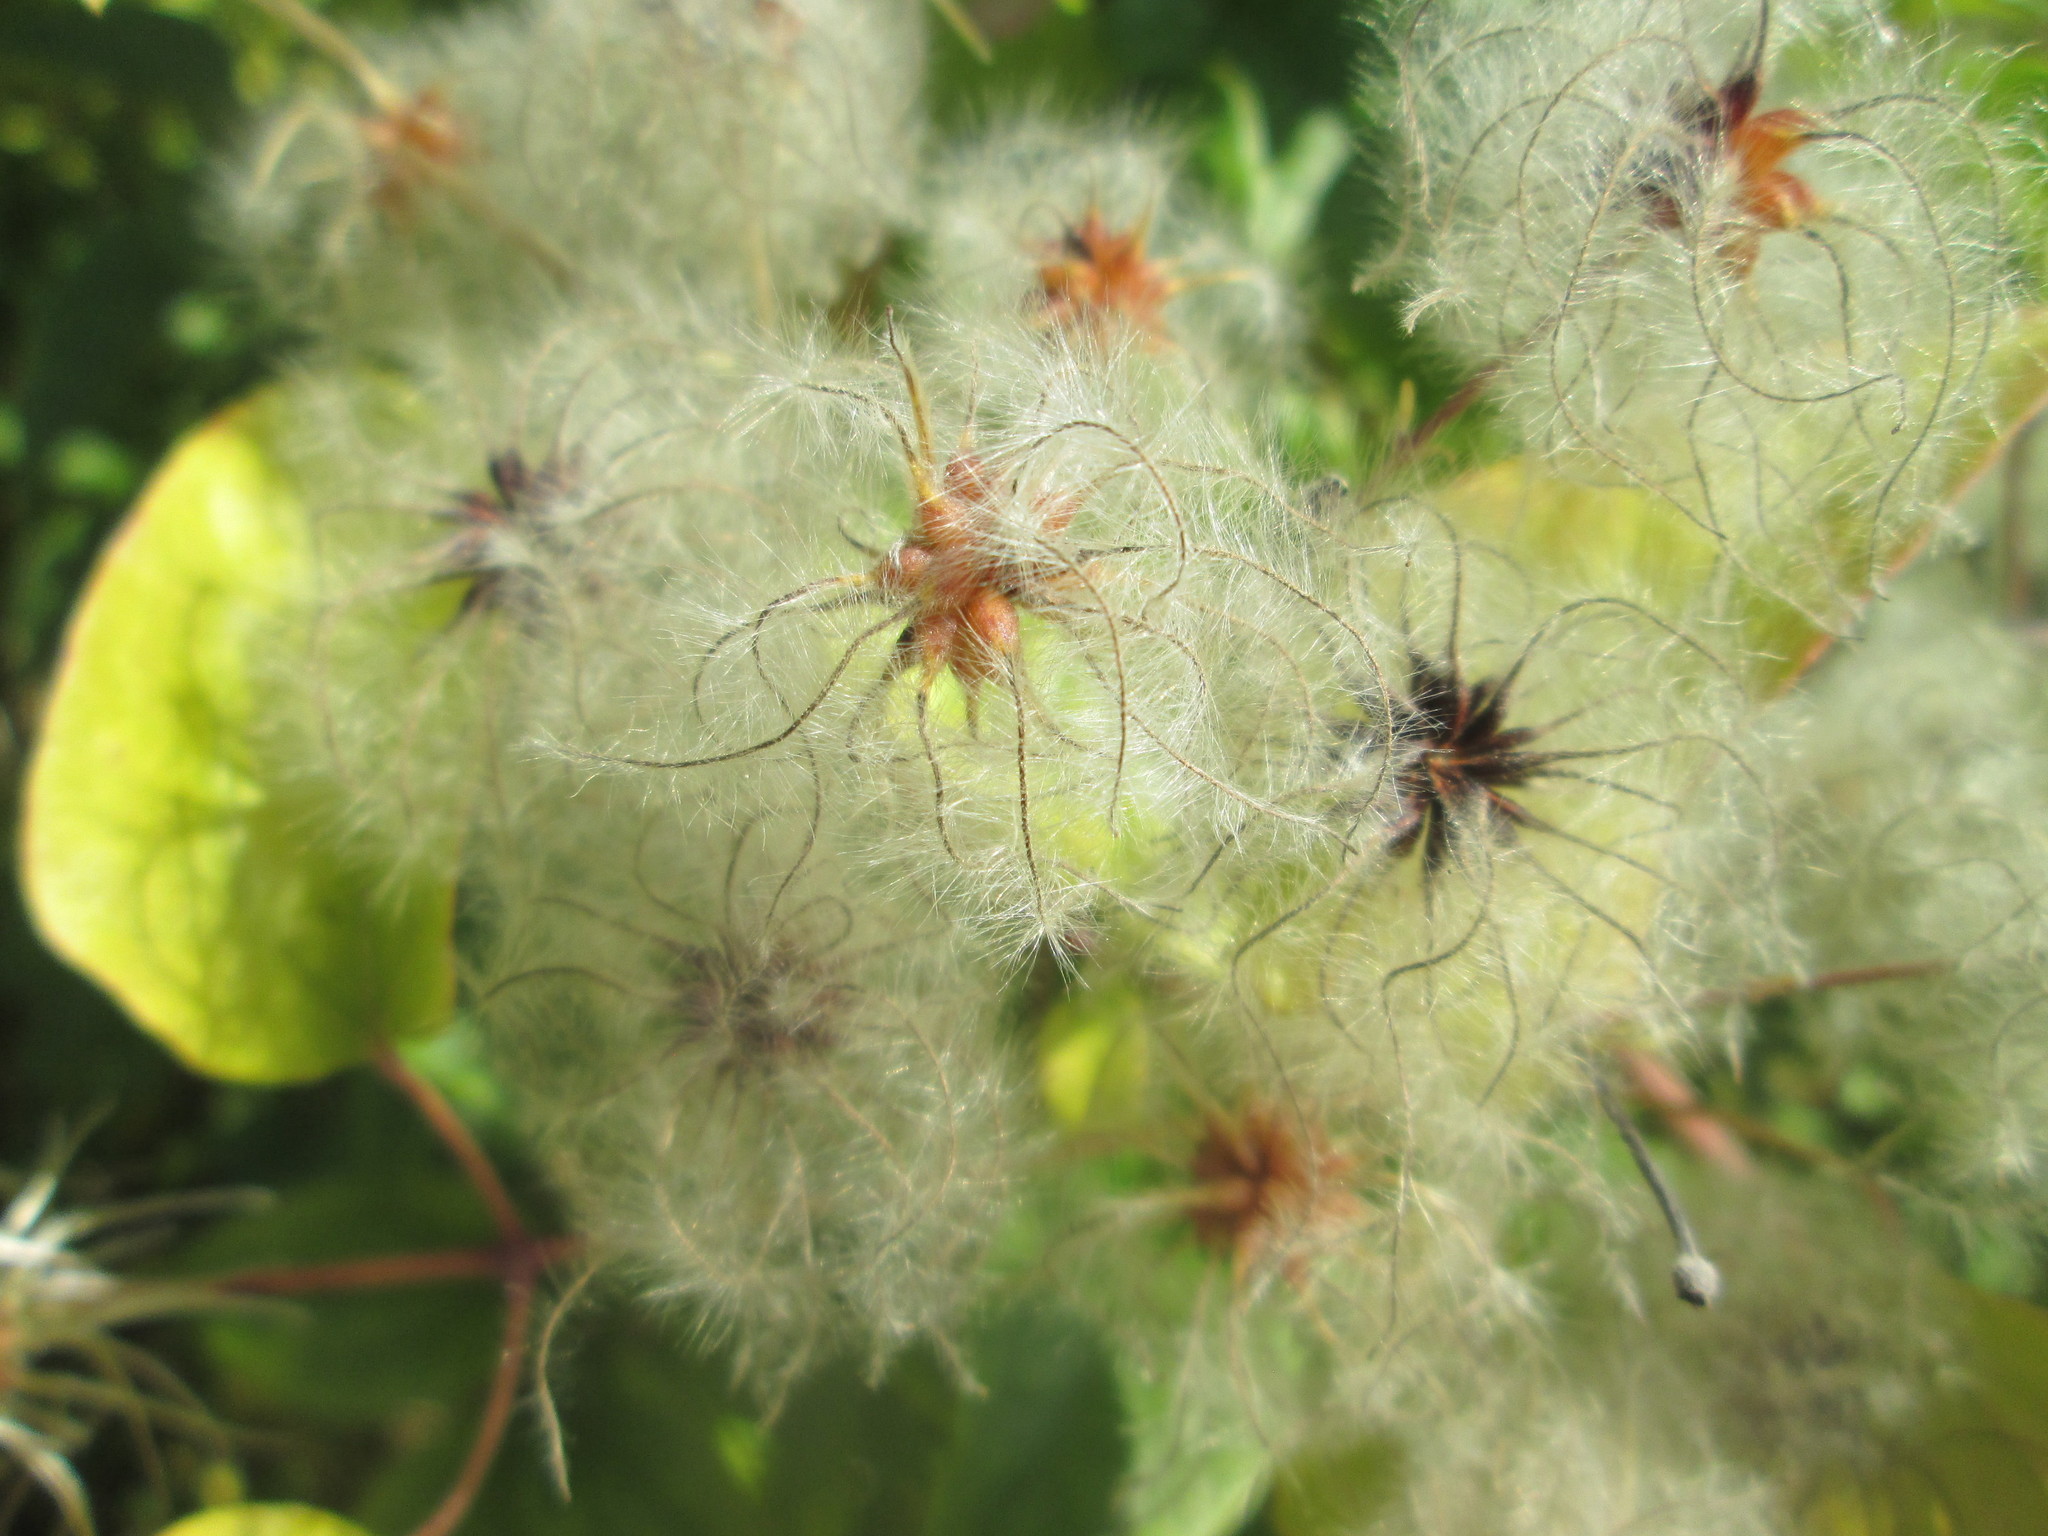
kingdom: Plantae
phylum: Tracheophyta
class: Magnoliopsida
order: Ranunculales
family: Ranunculaceae
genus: Clematis
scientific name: Clematis vitalba
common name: Evergreen clematis
